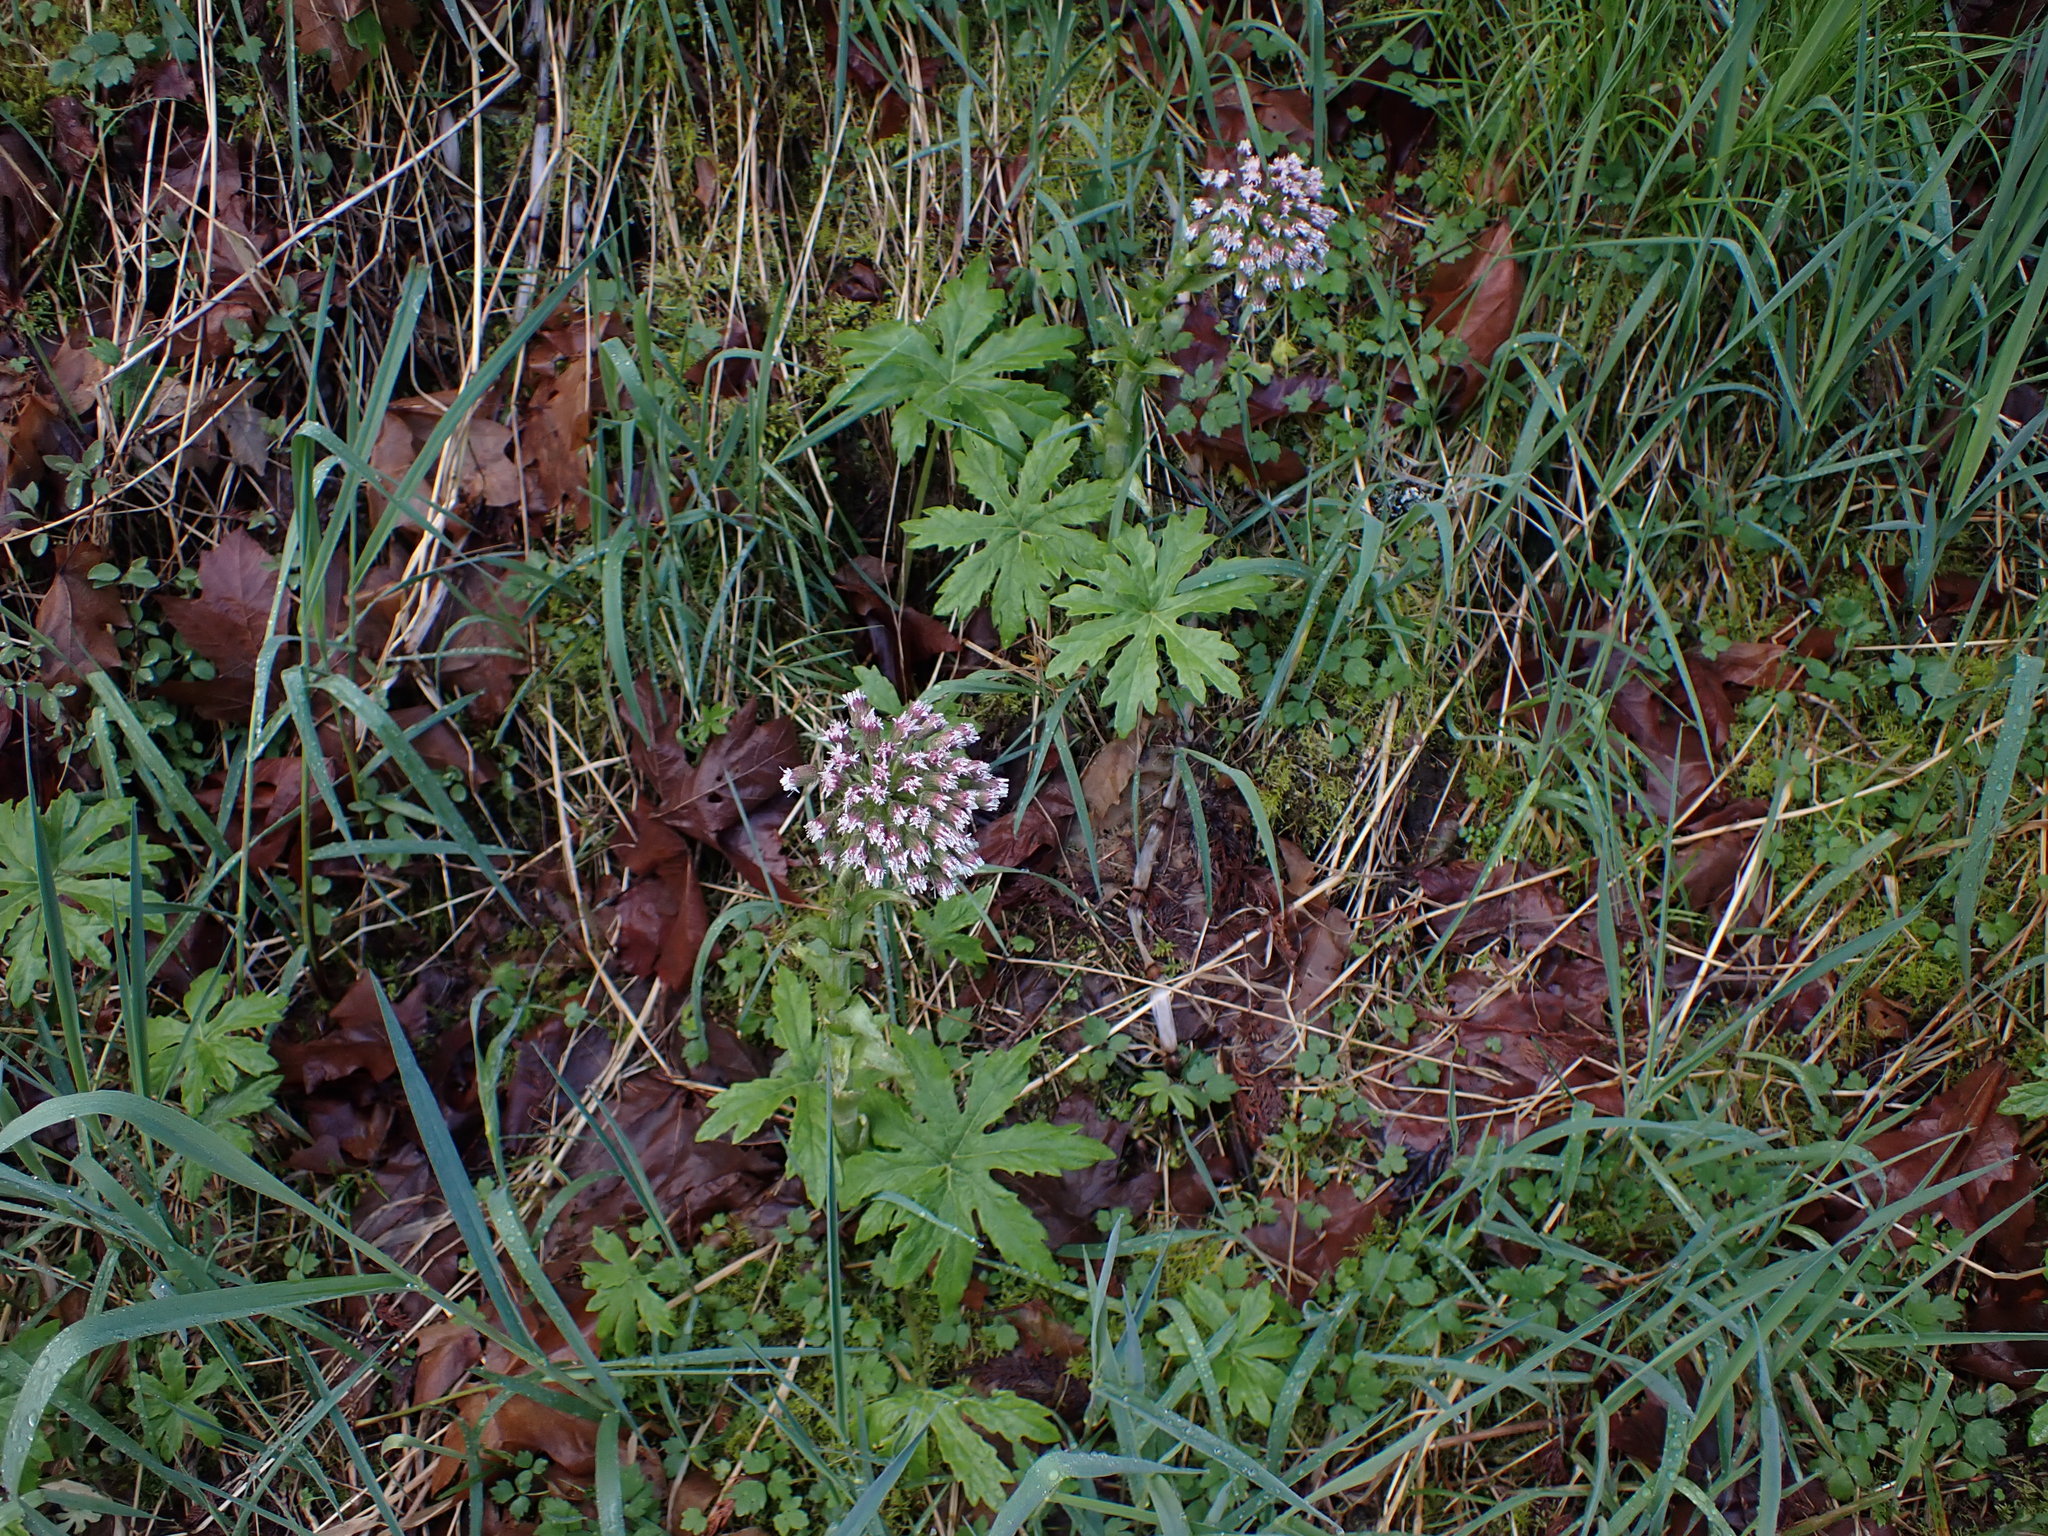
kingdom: Plantae
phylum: Tracheophyta
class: Magnoliopsida
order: Asterales
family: Asteraceae
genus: Petasites
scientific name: Petasites frigidus
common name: Arctic butterbur
